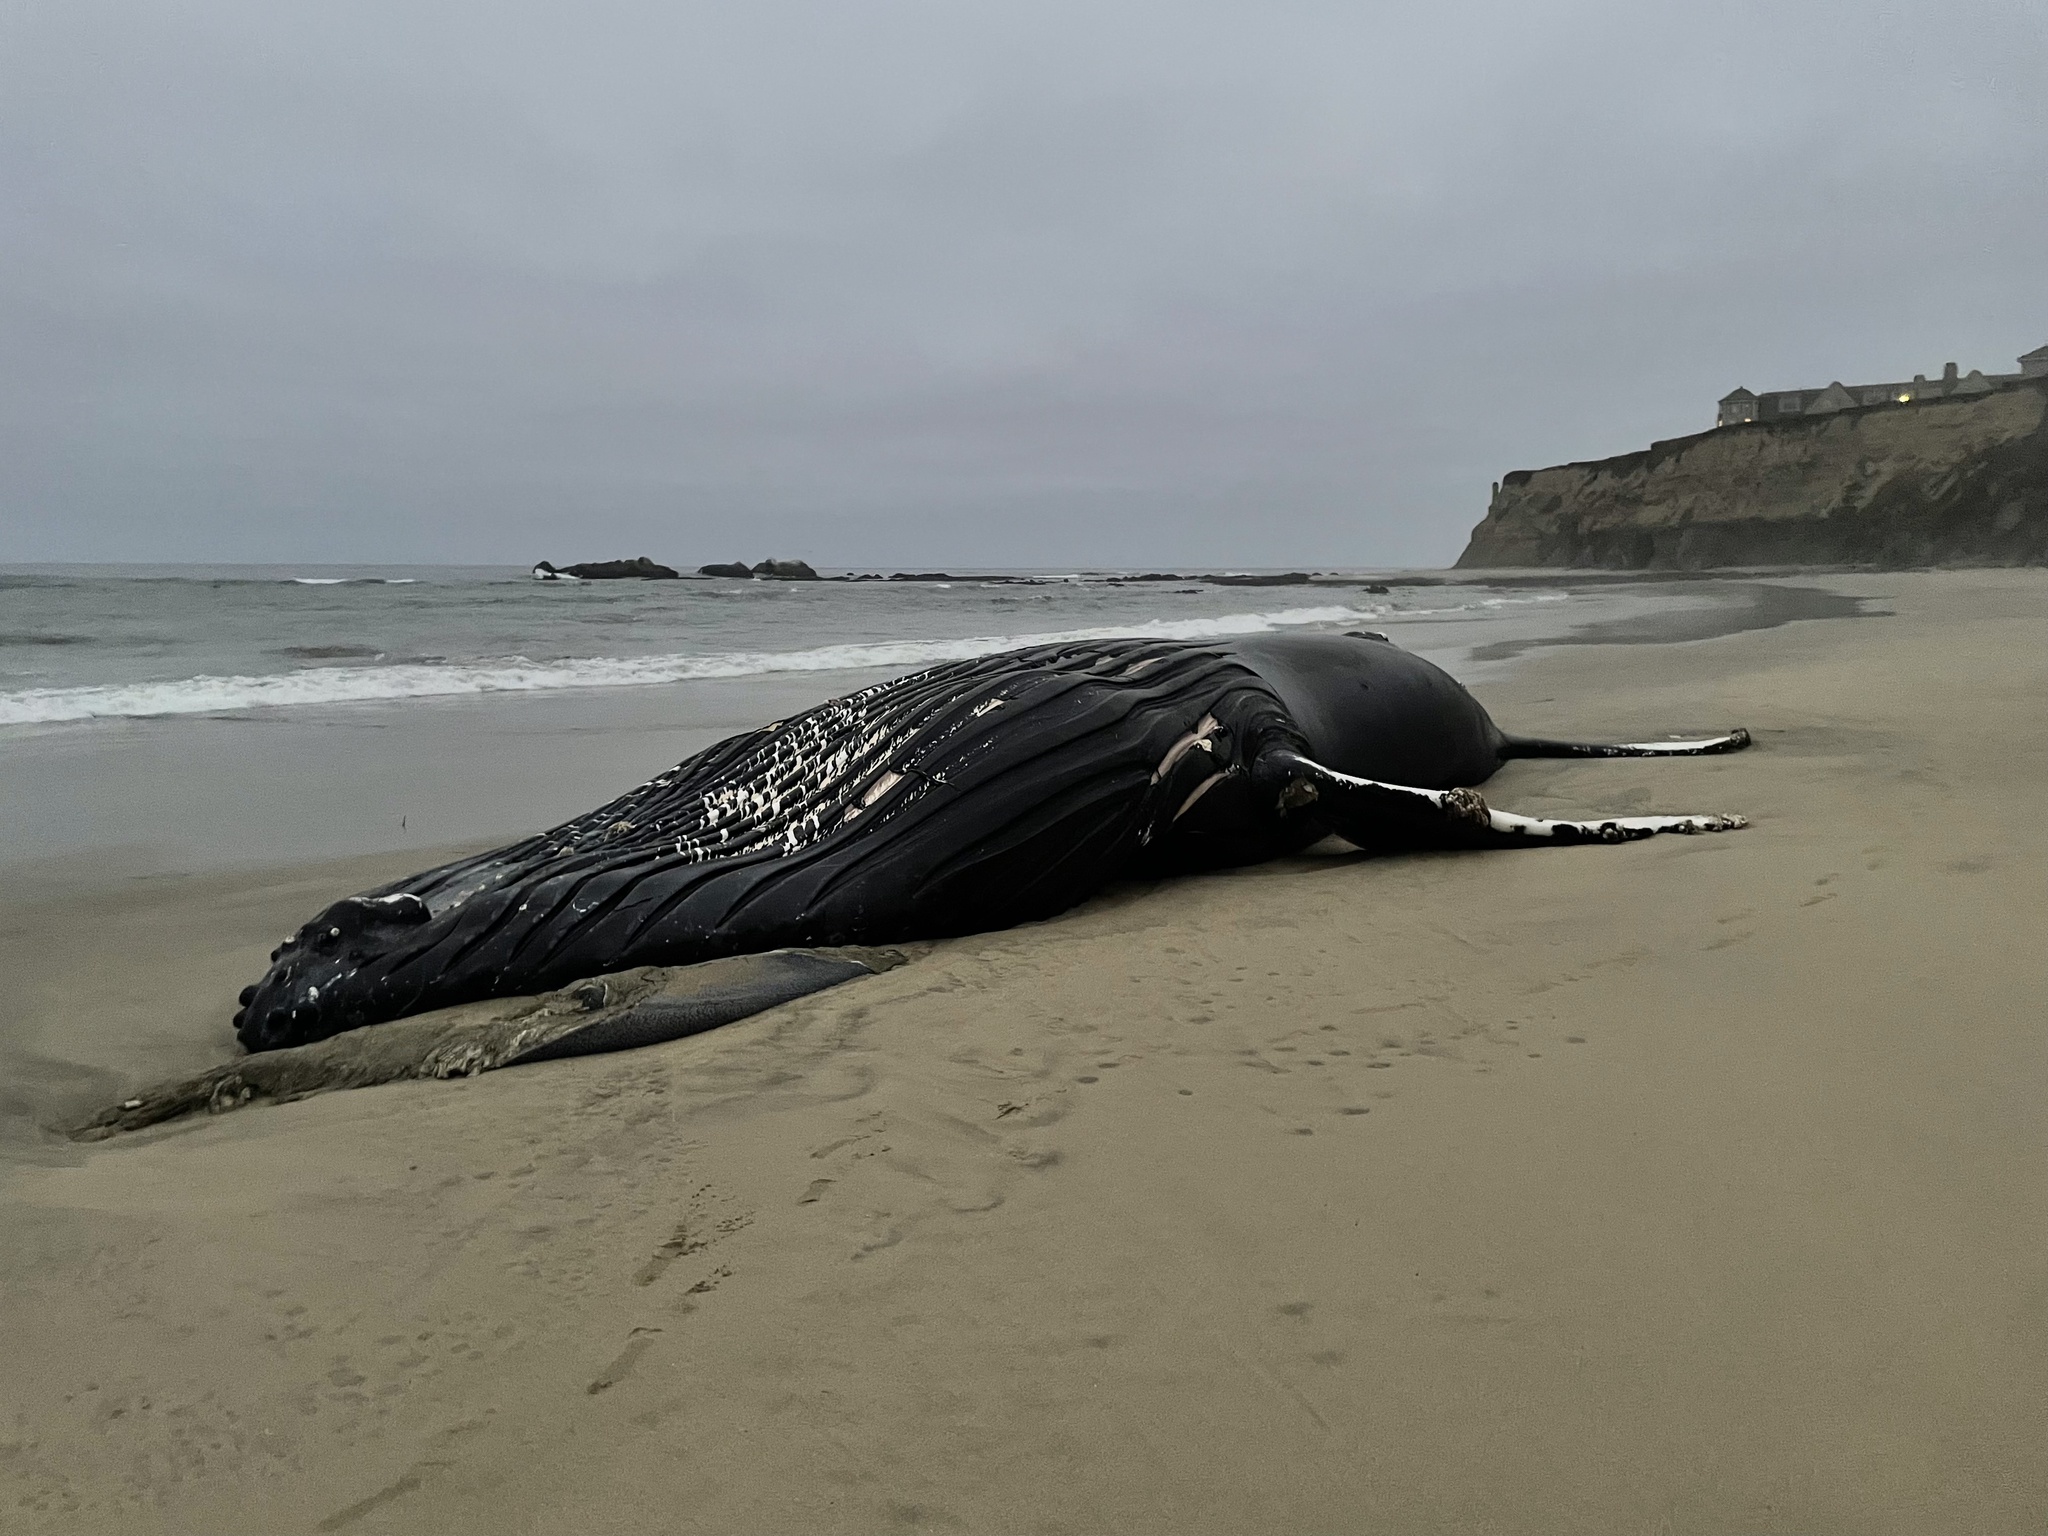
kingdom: Animalia
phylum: Chordata
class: Mammalia
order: Cetacea
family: Balaenopteridae
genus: Megaptera
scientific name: Megaptera novaeangliae
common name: Humpback whale
